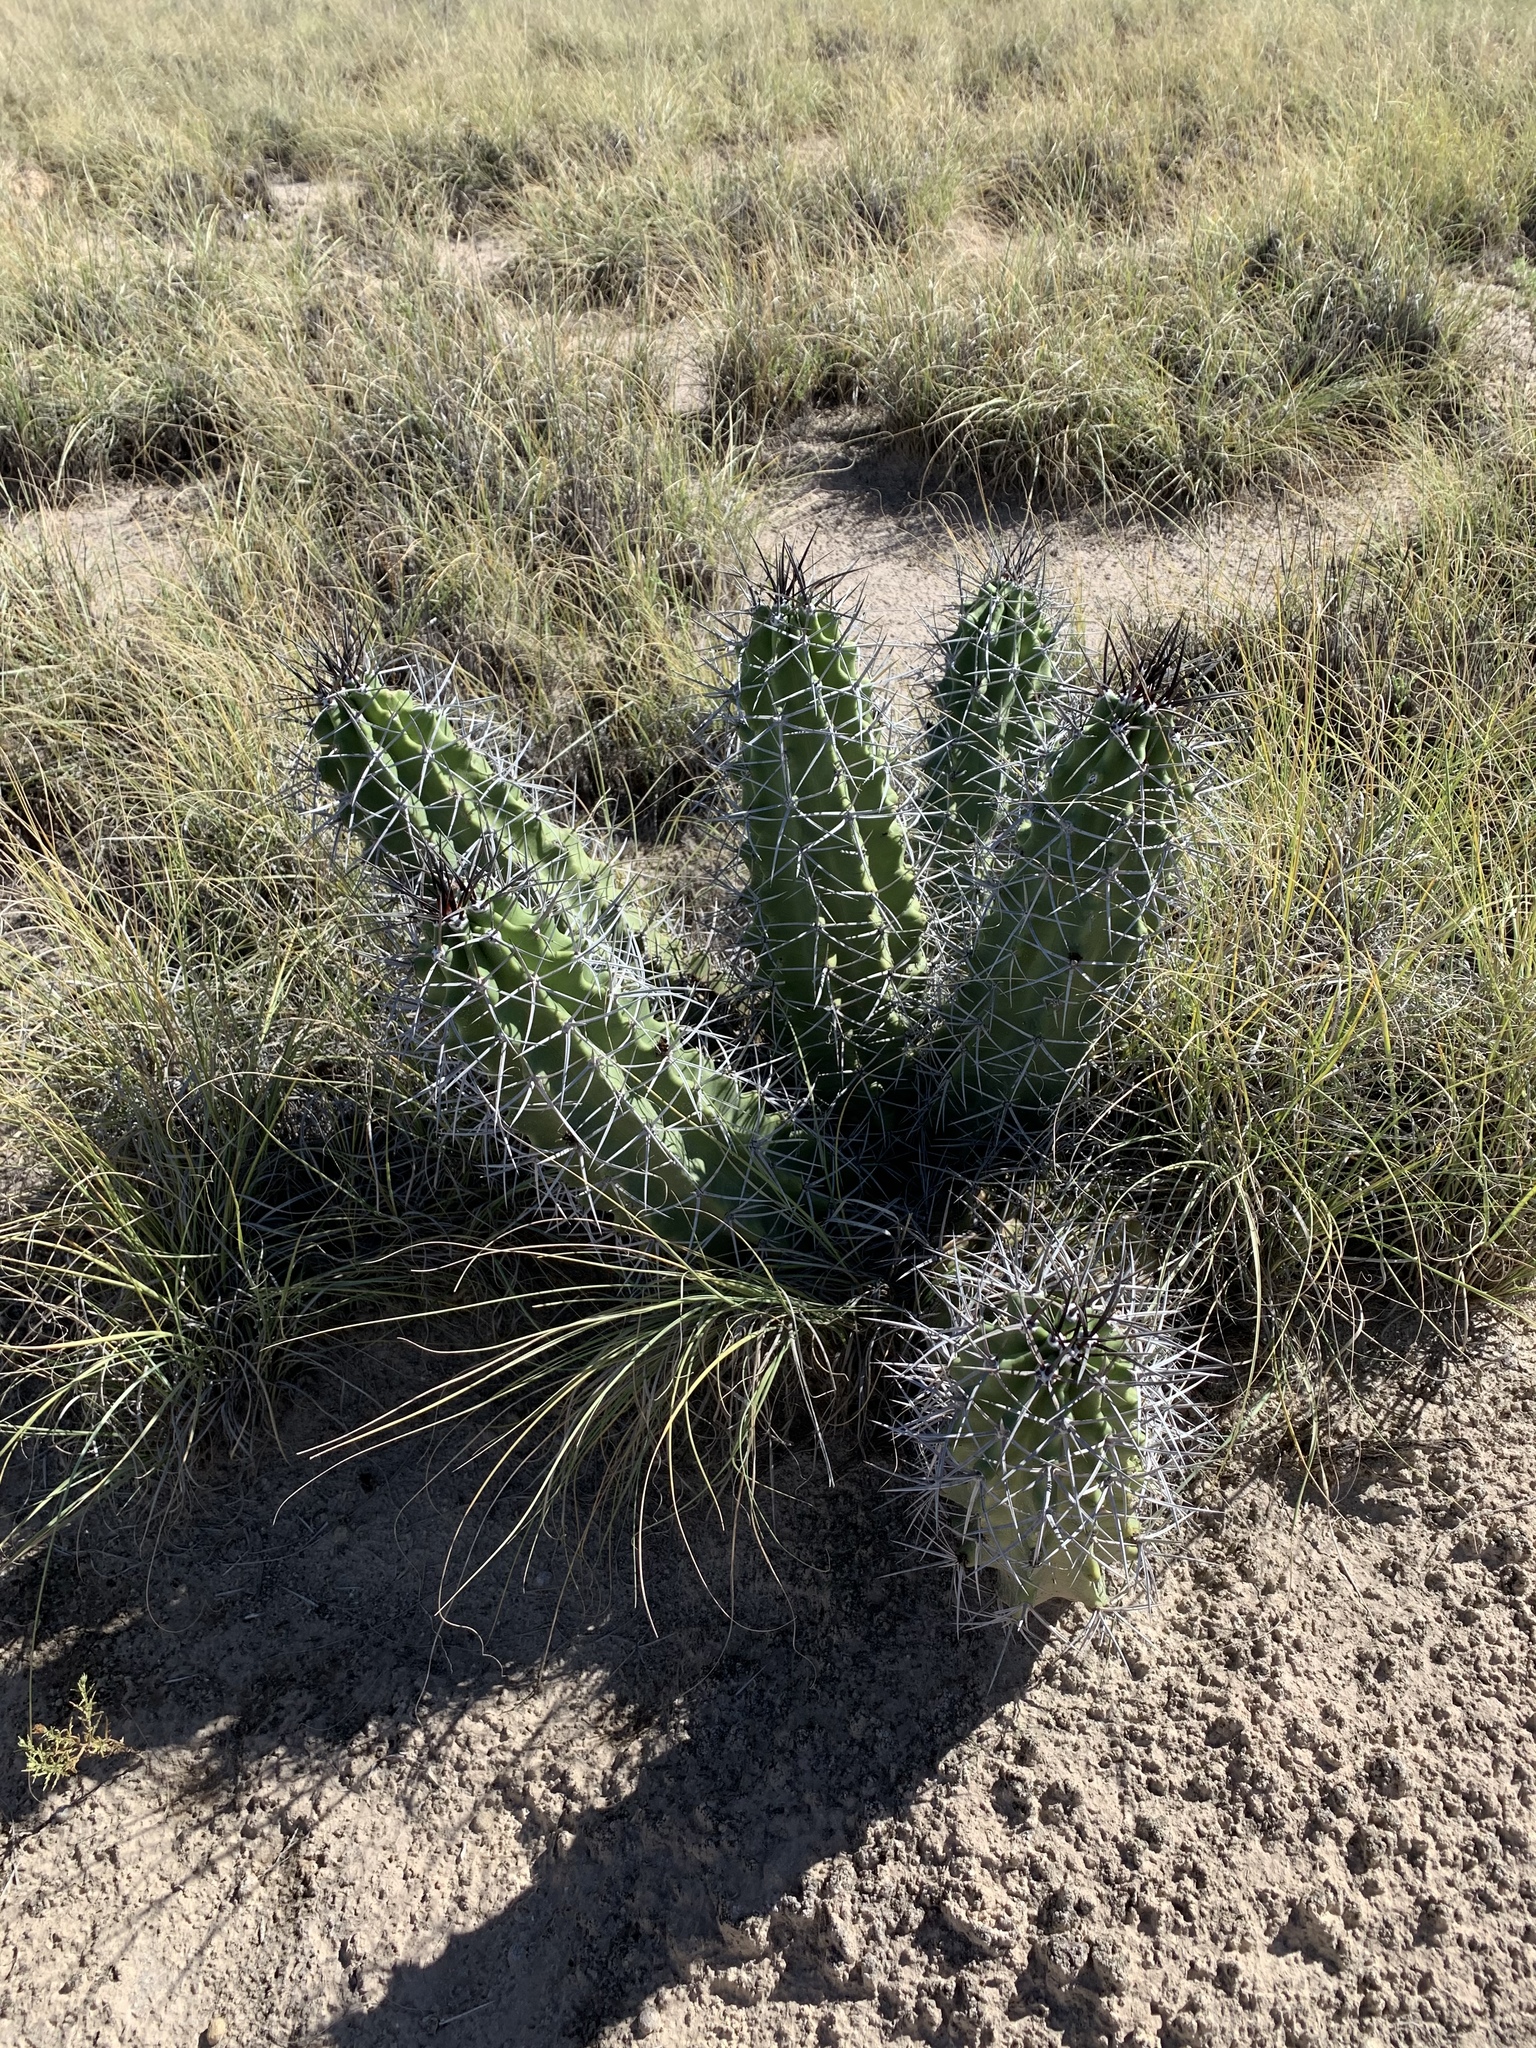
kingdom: Plantae
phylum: Tracheophyta
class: Magnoliopsida
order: Caryophyllales
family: Cactaceae
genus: Echinocereus
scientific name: Echinocereus triglochidiatus
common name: Claretcup hedgehog
